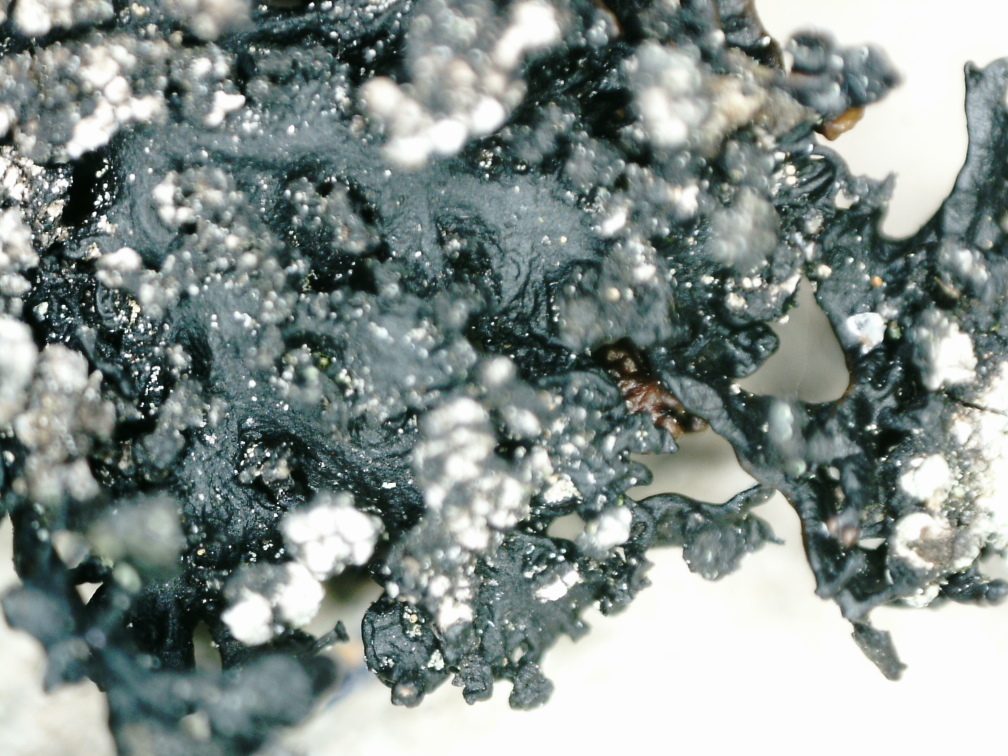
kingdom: Fungi
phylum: Ascomycota
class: Lecanoromycetes
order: Lecanorales
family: Parmeliaceae
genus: Melanelia
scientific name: Melanelia stygia
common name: Alpine camouflage lichen
